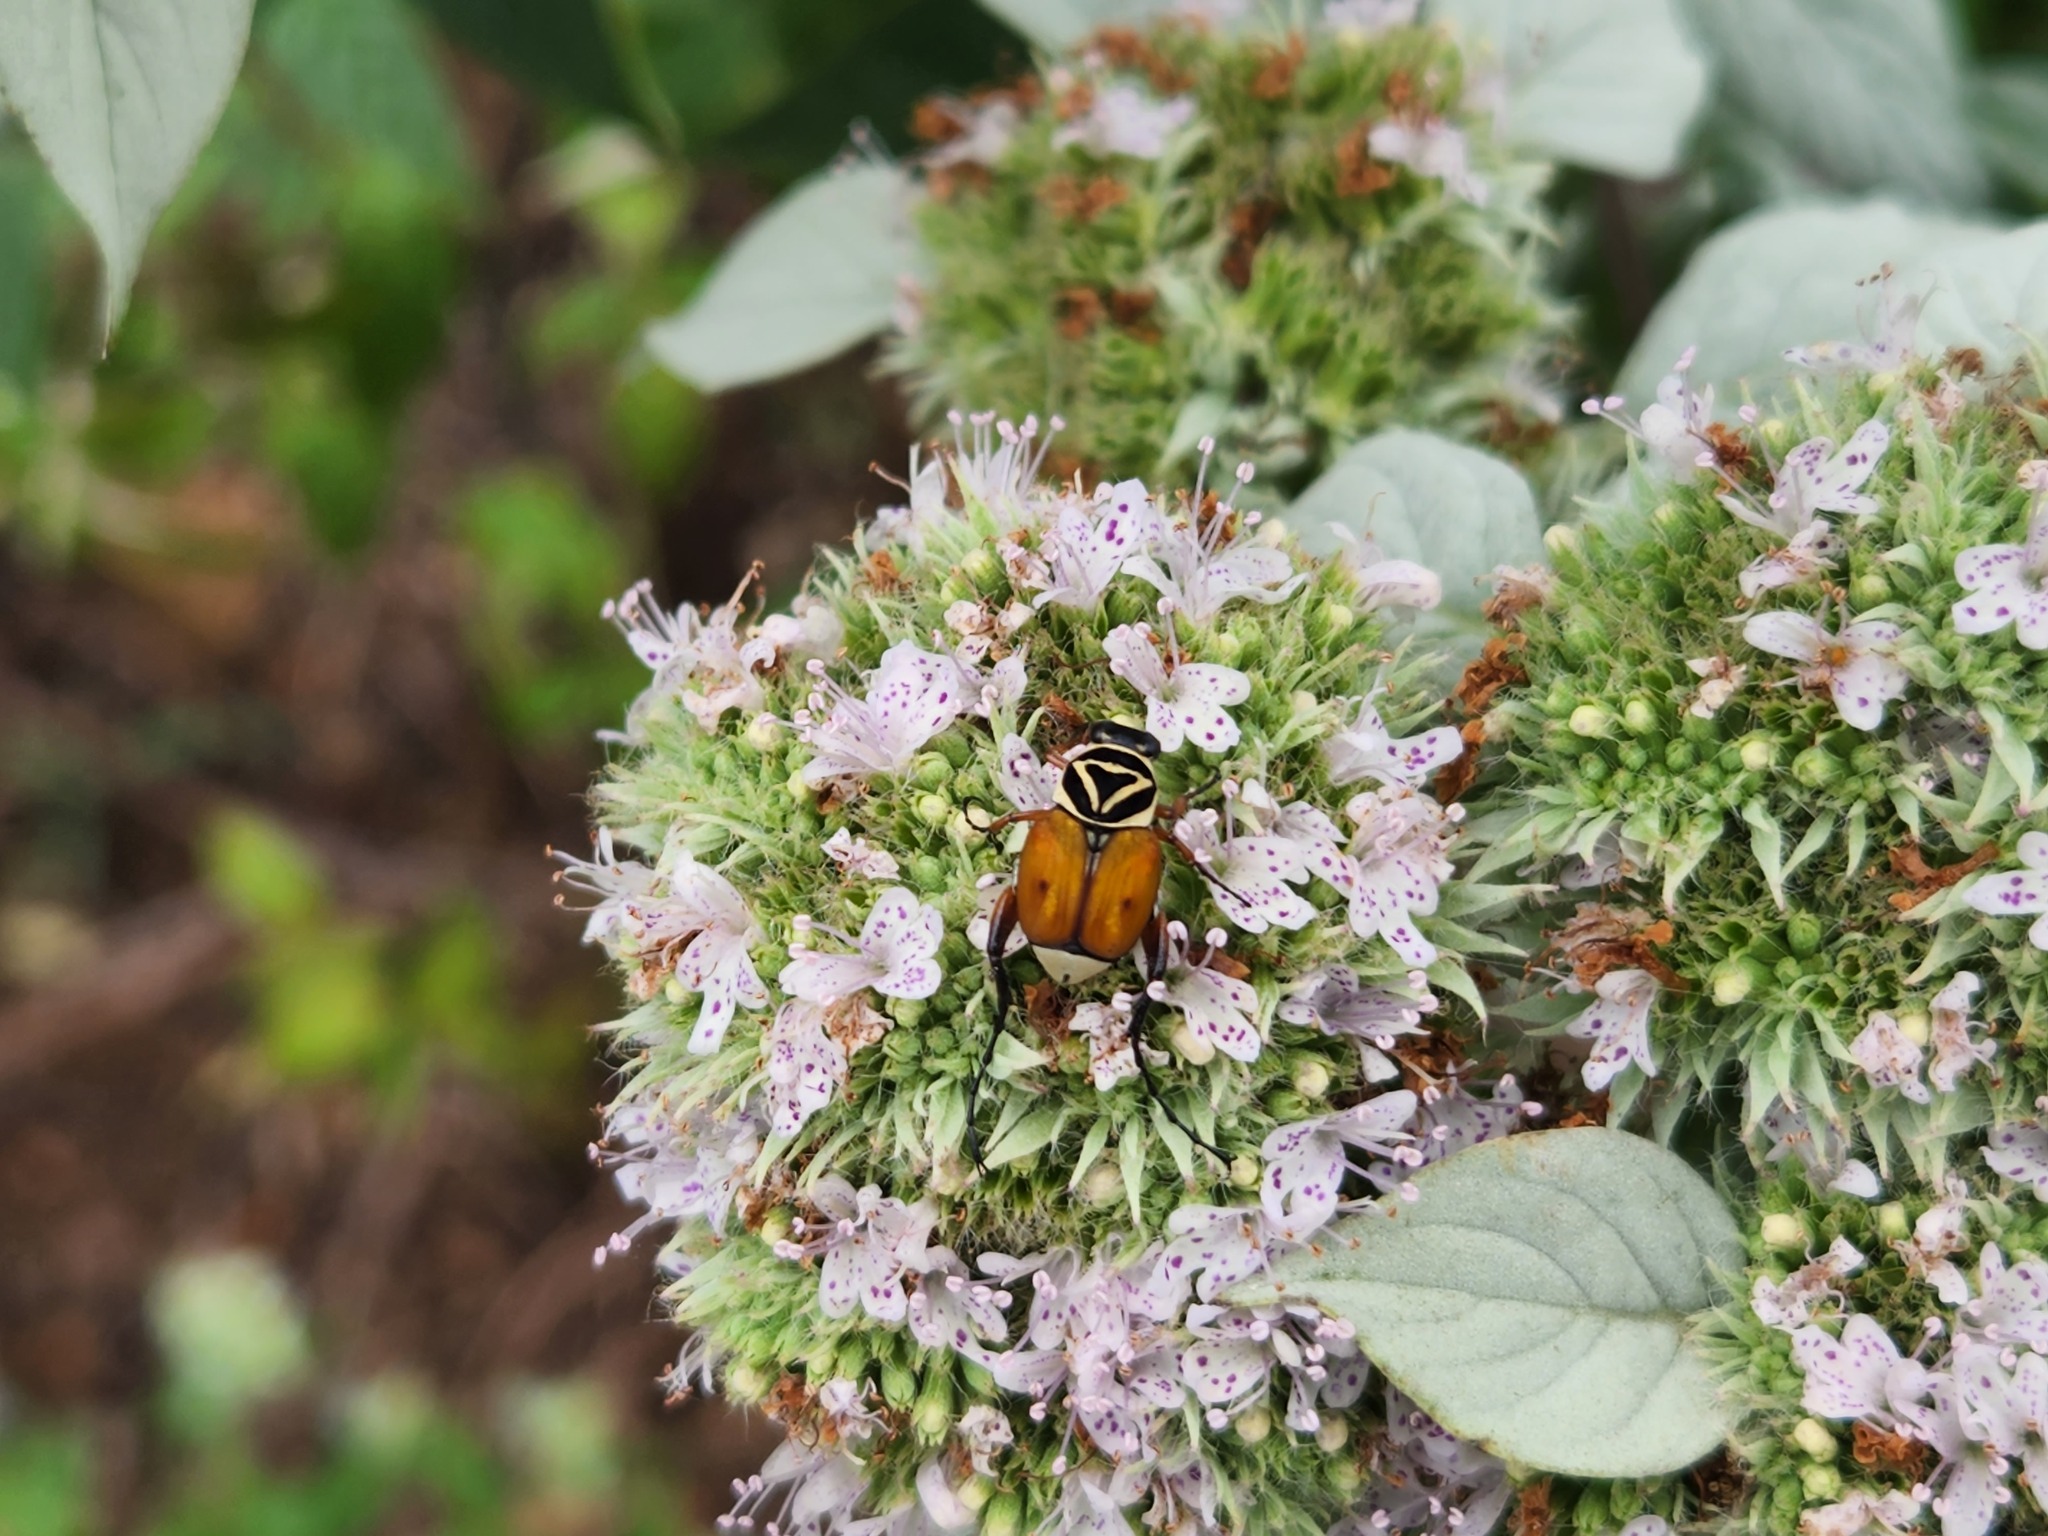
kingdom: Animalia
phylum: Arthropoda
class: Insecta
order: Coleoptera
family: Scarabaeidae
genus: Trigonopeltastes
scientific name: Trigonopeltastes delta
